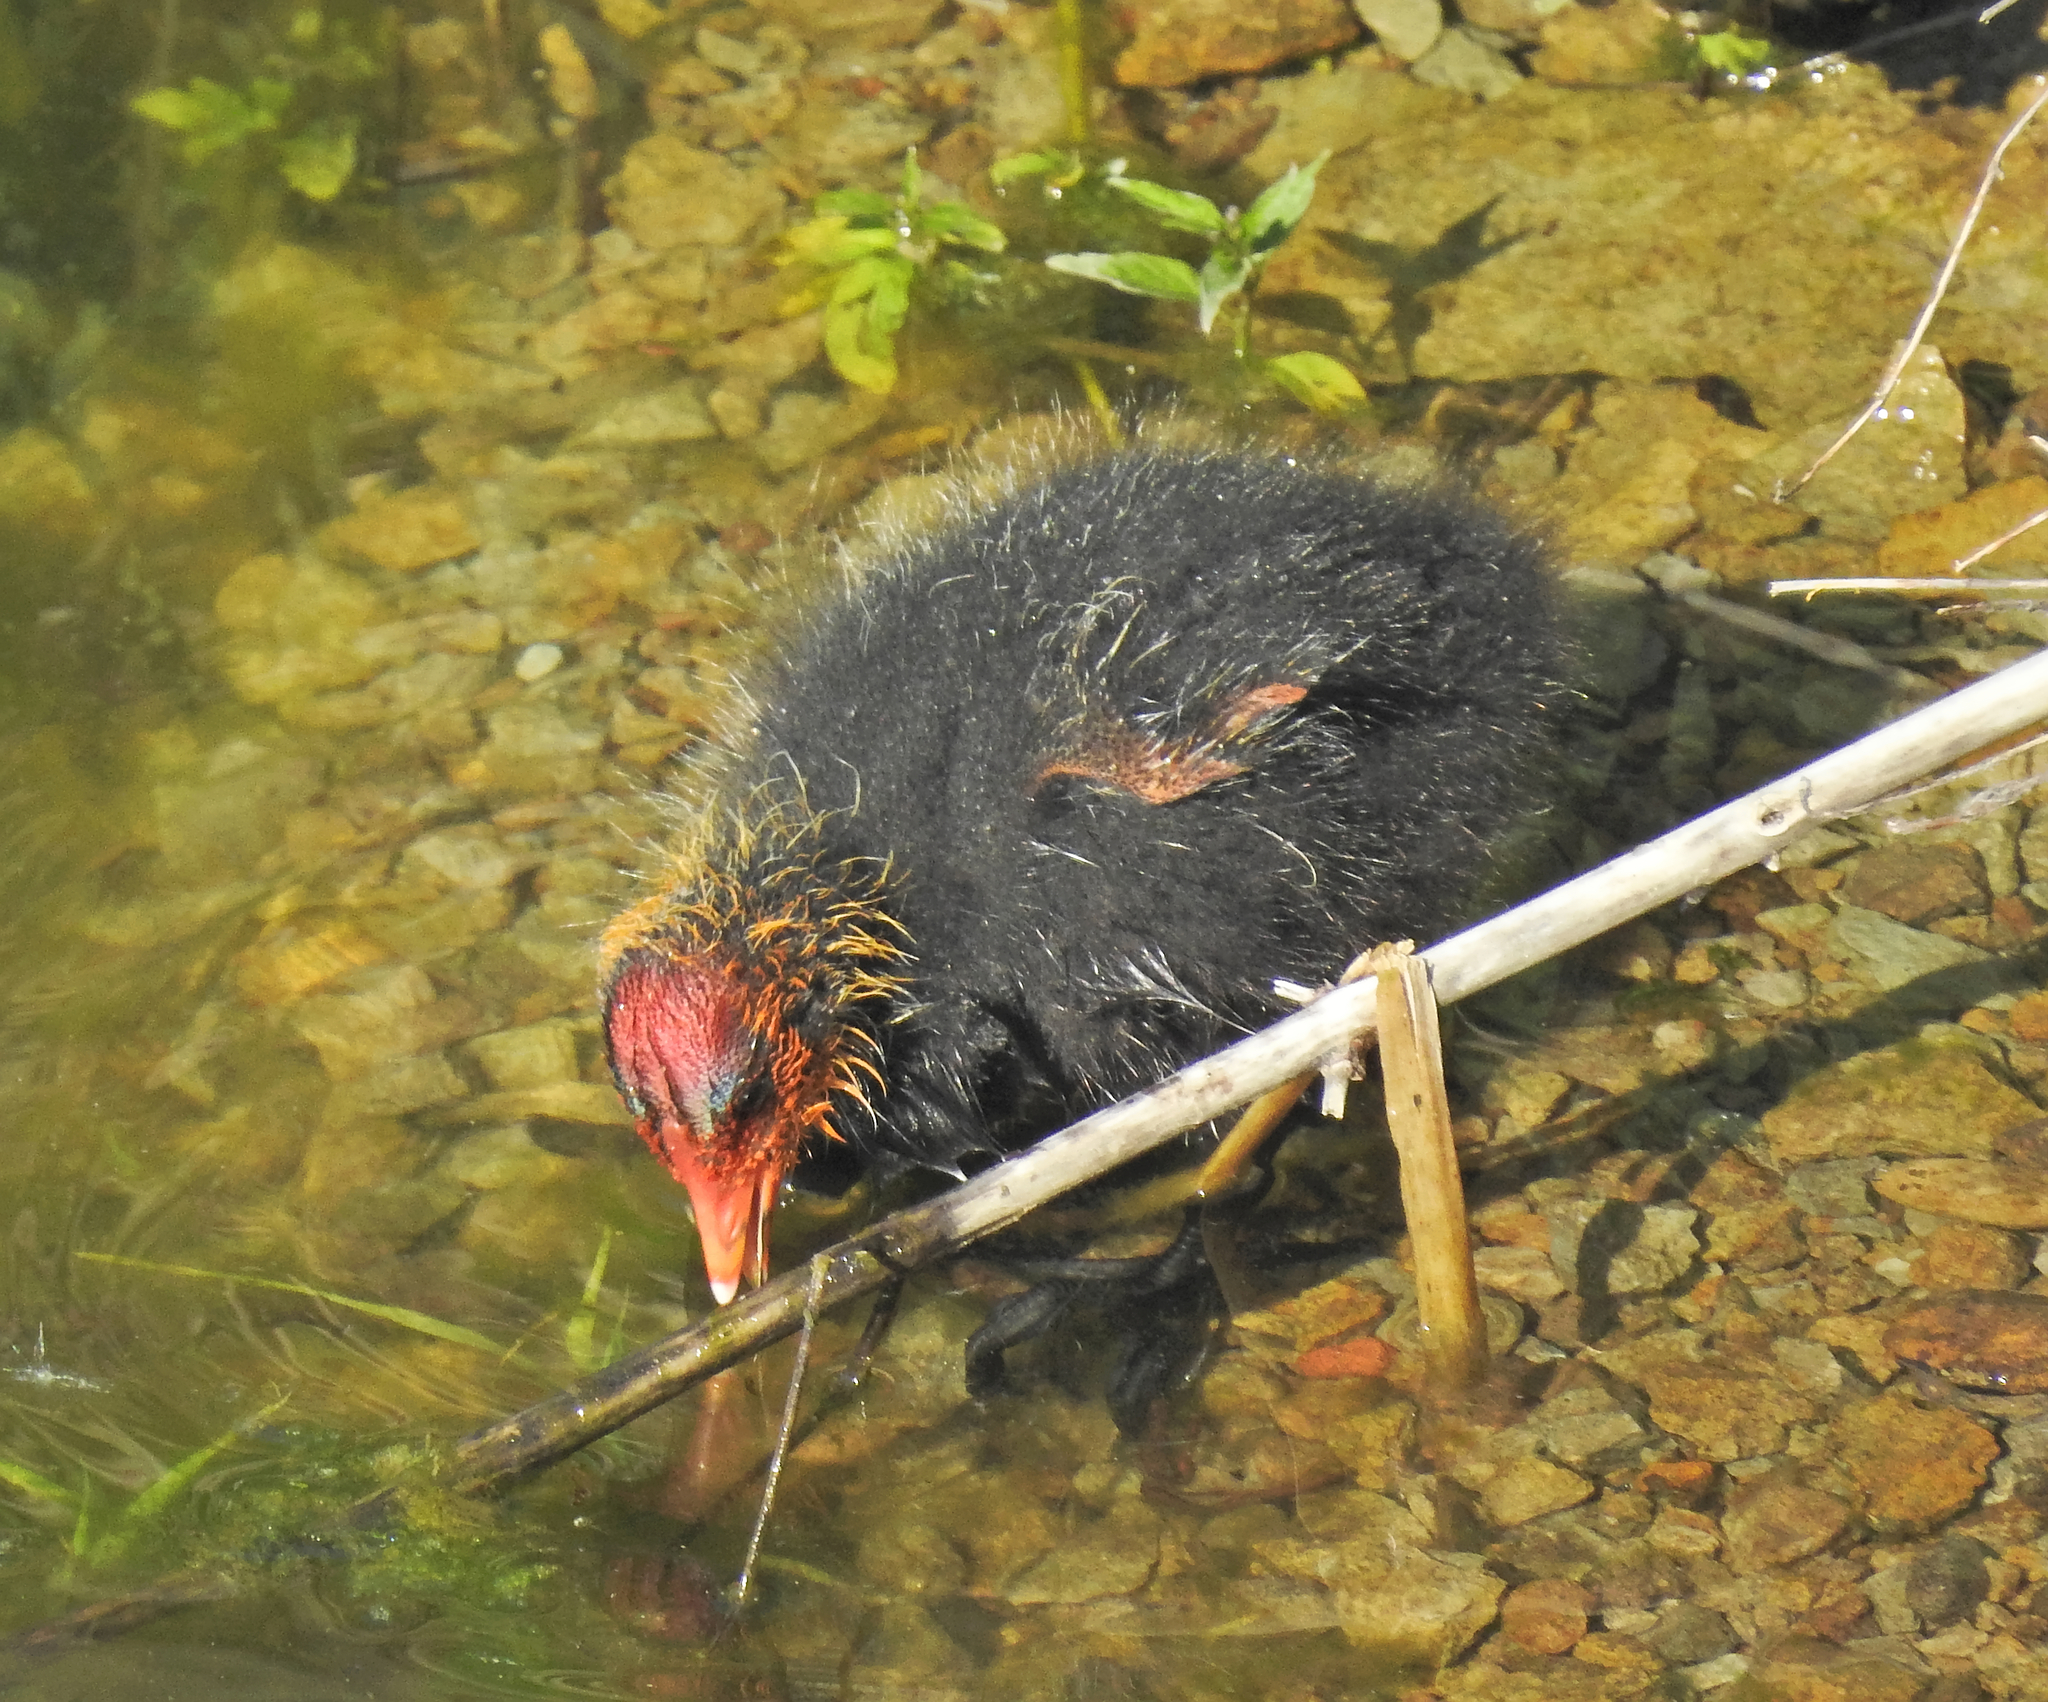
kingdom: Animalia
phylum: Chordata
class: Aves
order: Gruiformes
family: Rallidae
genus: Fulica
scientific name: Fulica atra
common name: Eurasian coot
